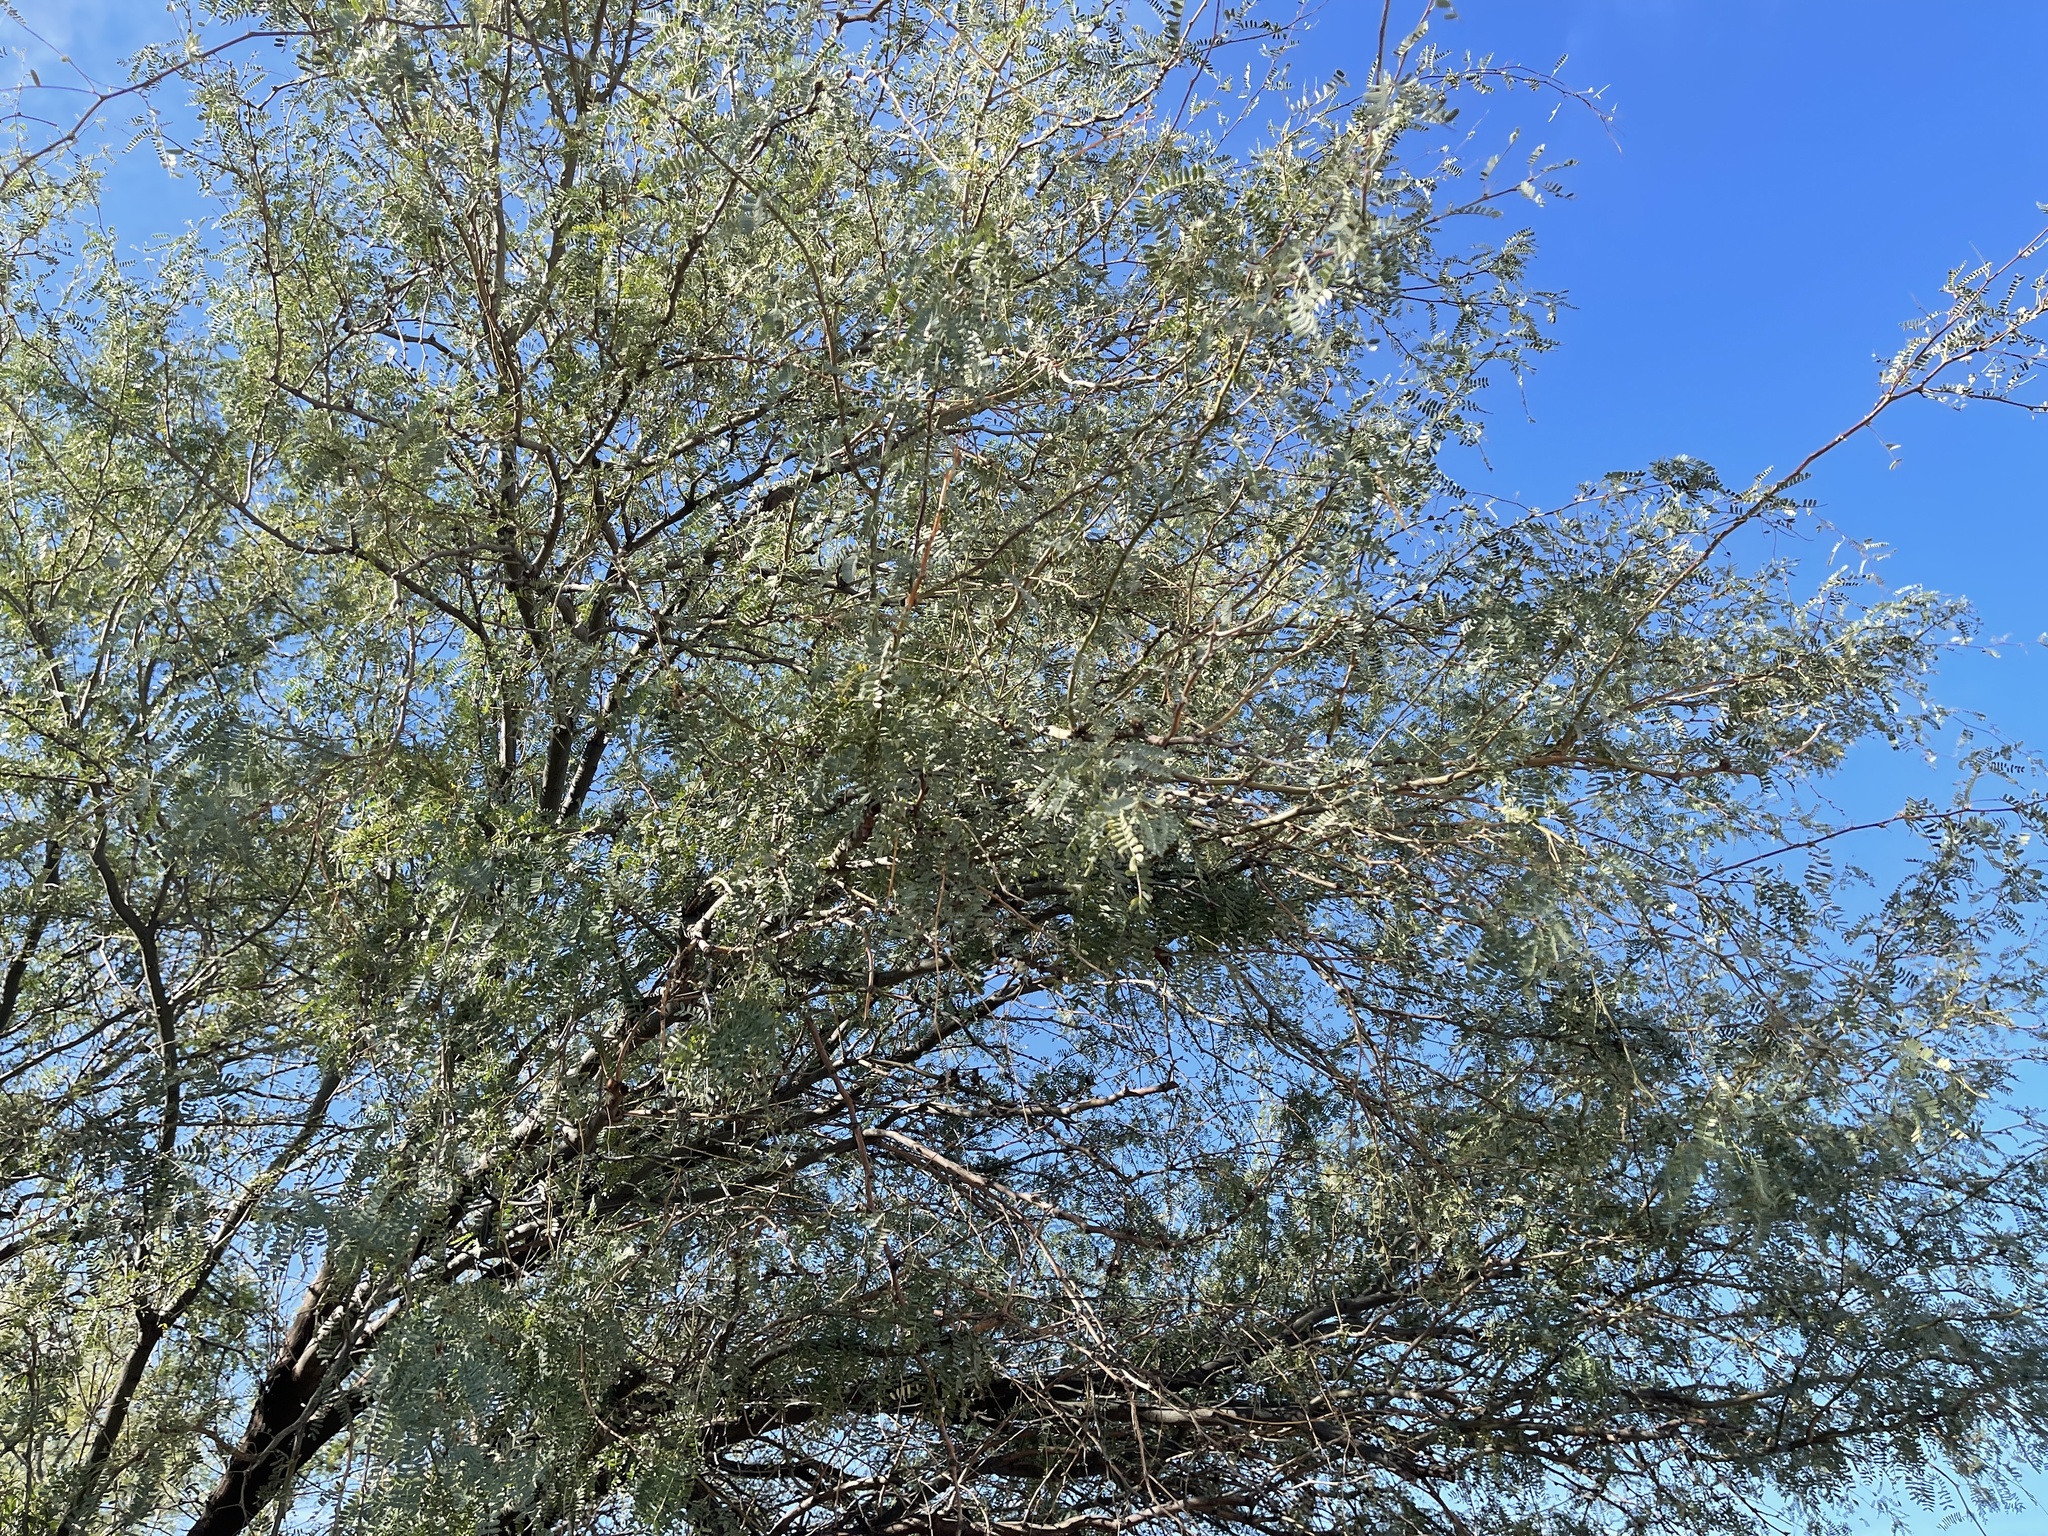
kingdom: Plantae
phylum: Tracheophyta
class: Magnoliopsida
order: Fabales
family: Fabaceae
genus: Prosopis
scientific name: Prosopis velutina
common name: Velvet mesquite
